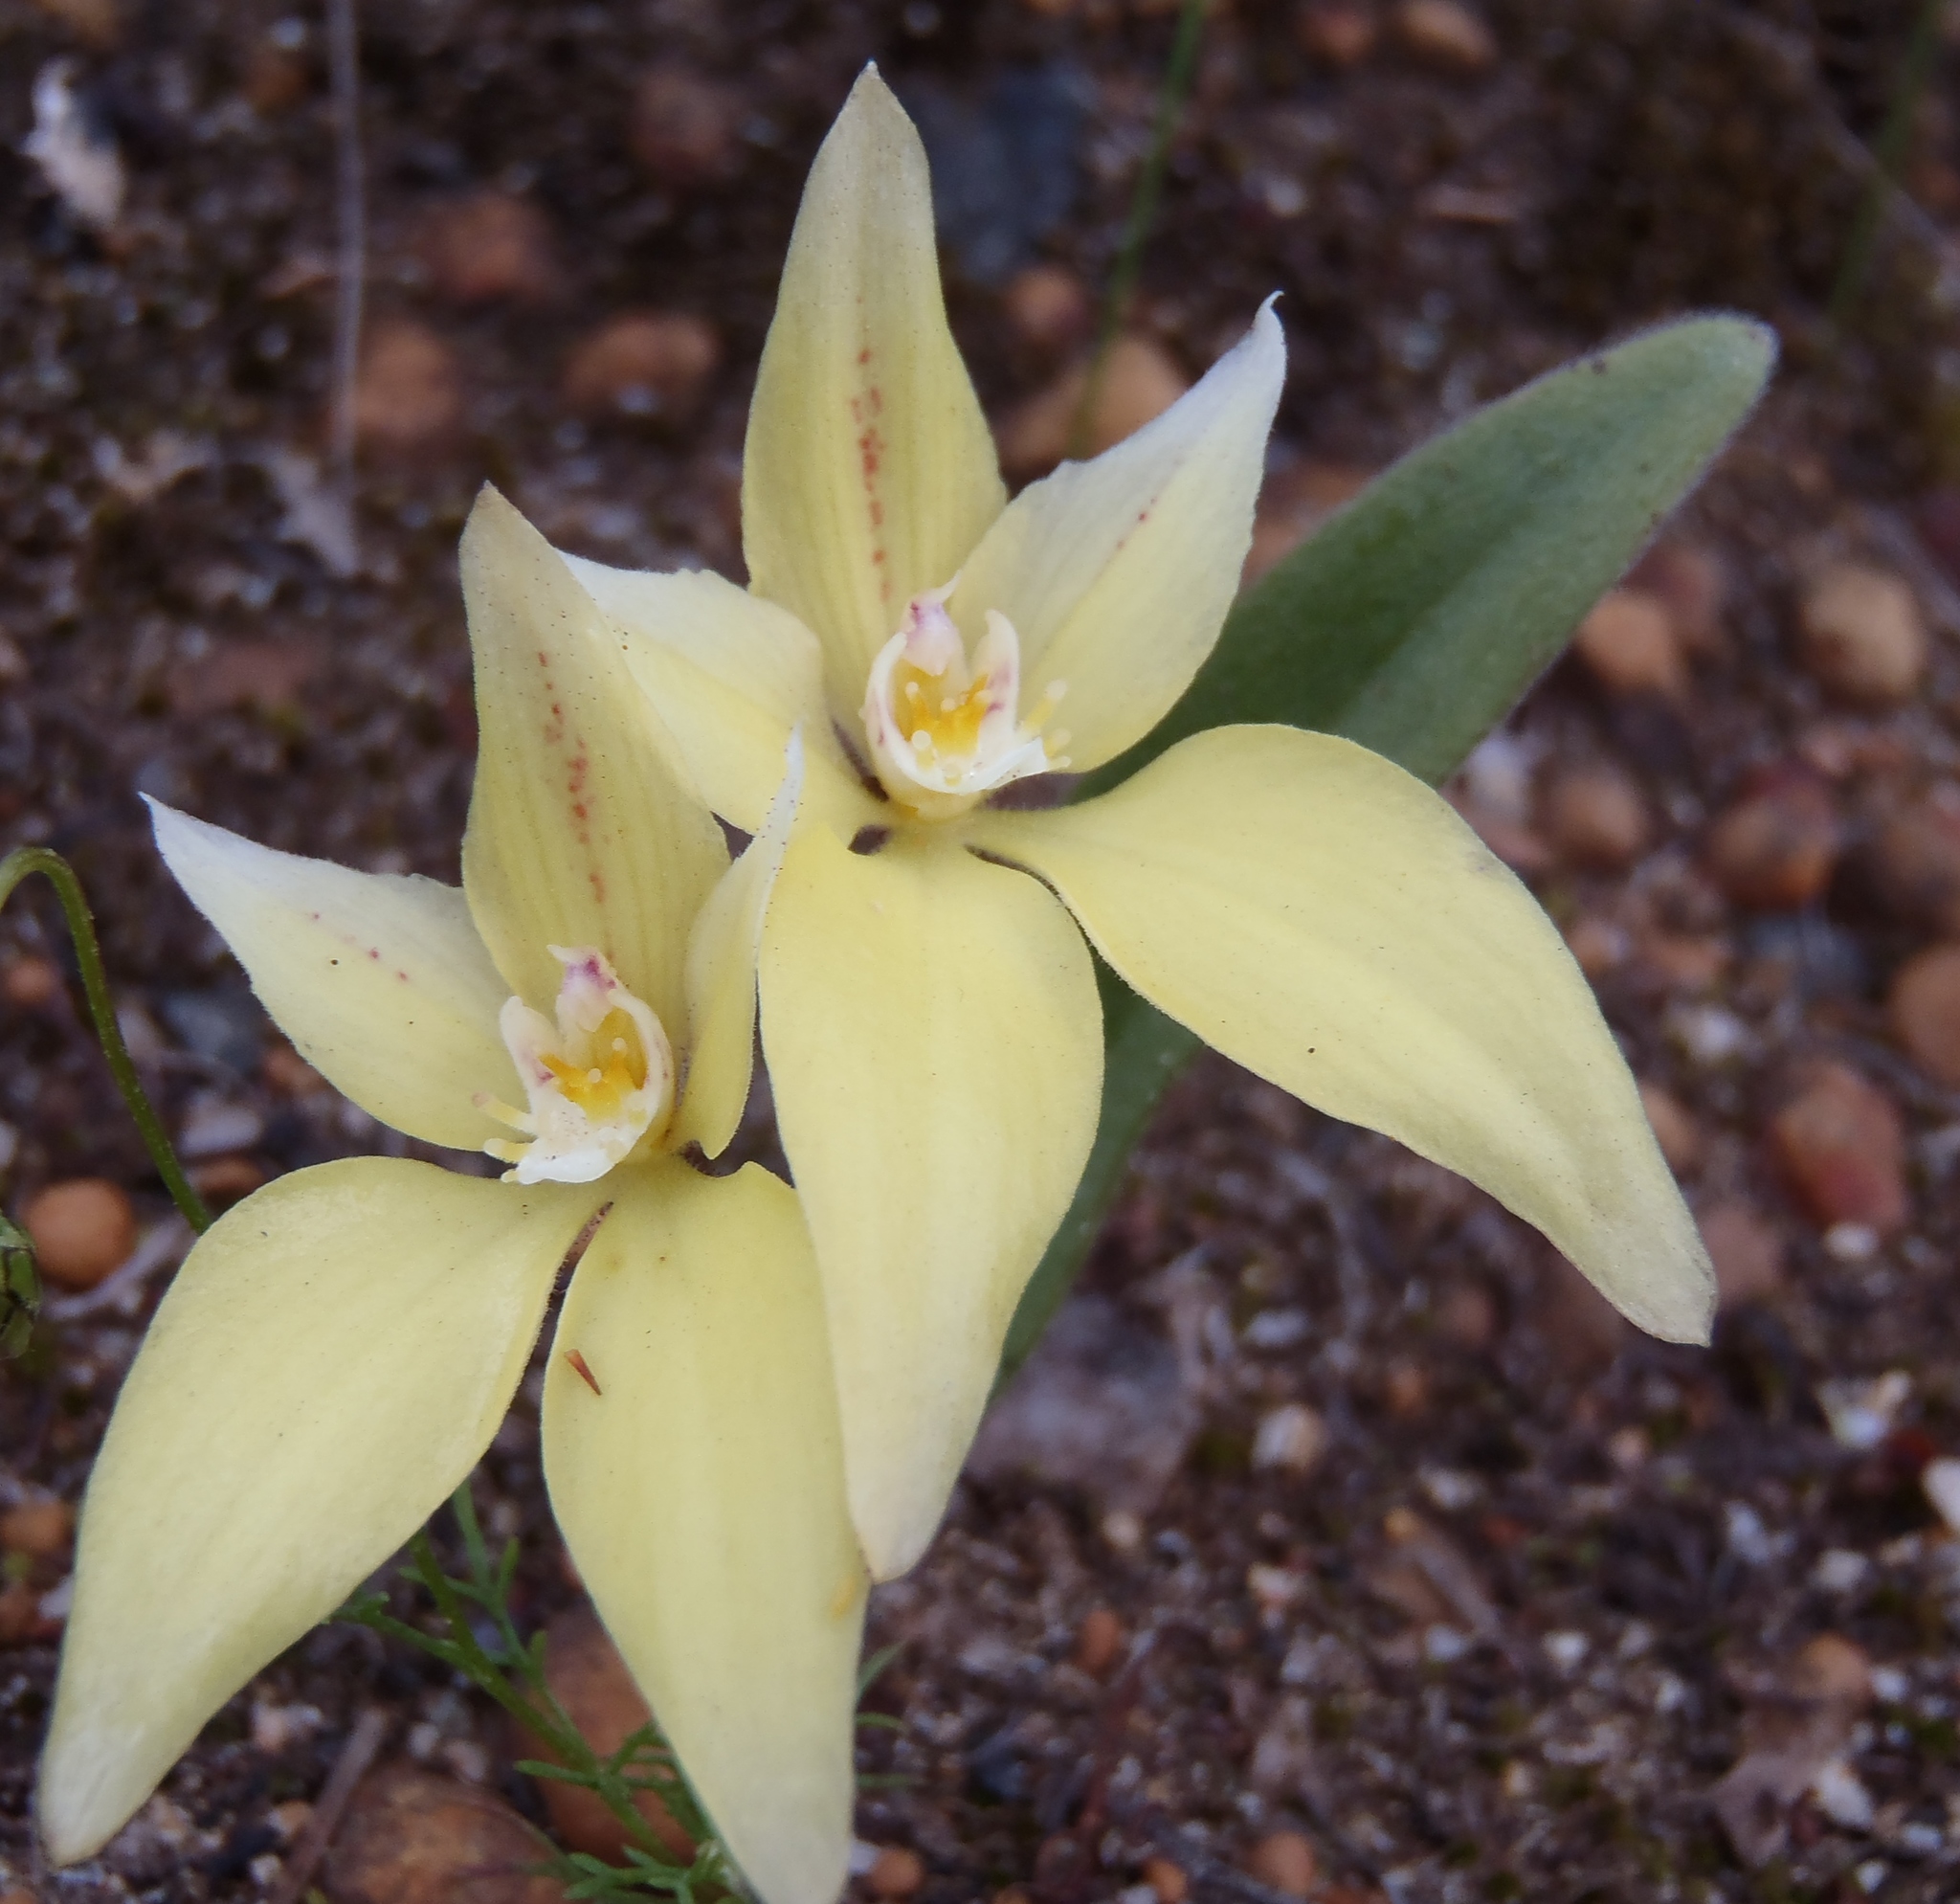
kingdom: Plantae
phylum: Tracheophyta
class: Liliopsida
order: Asparagales
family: Orchidaceae
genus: Caladenia
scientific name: Caladenia flava
